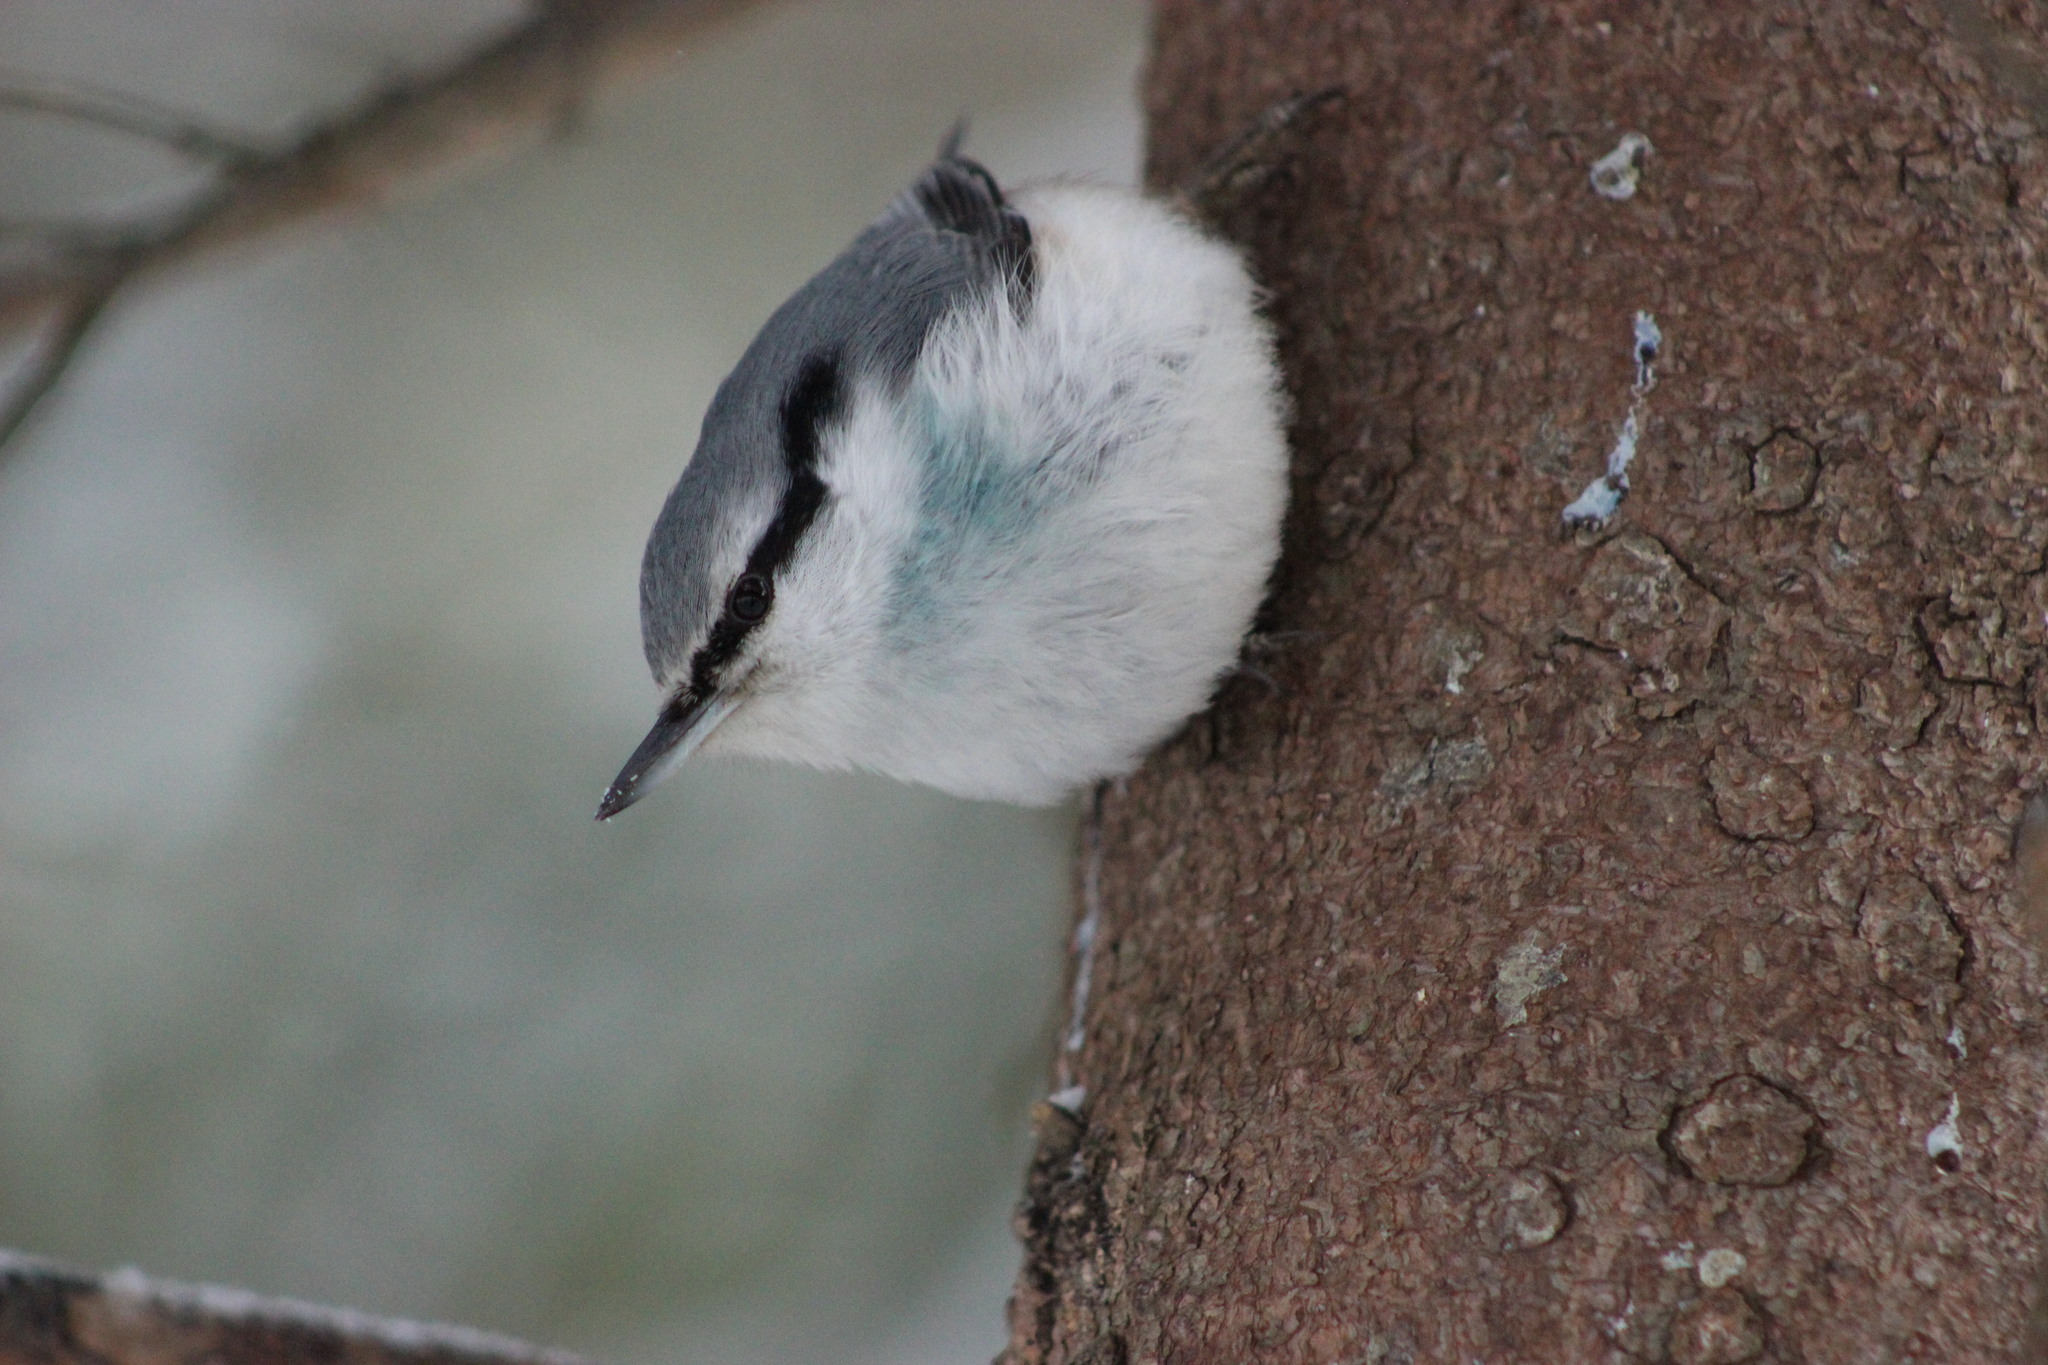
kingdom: Animalia
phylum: Chordata
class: Aves
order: Passeriformes
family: Sittidae
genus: Sitta
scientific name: Sitta europaea
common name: Eurasian nuthatch
